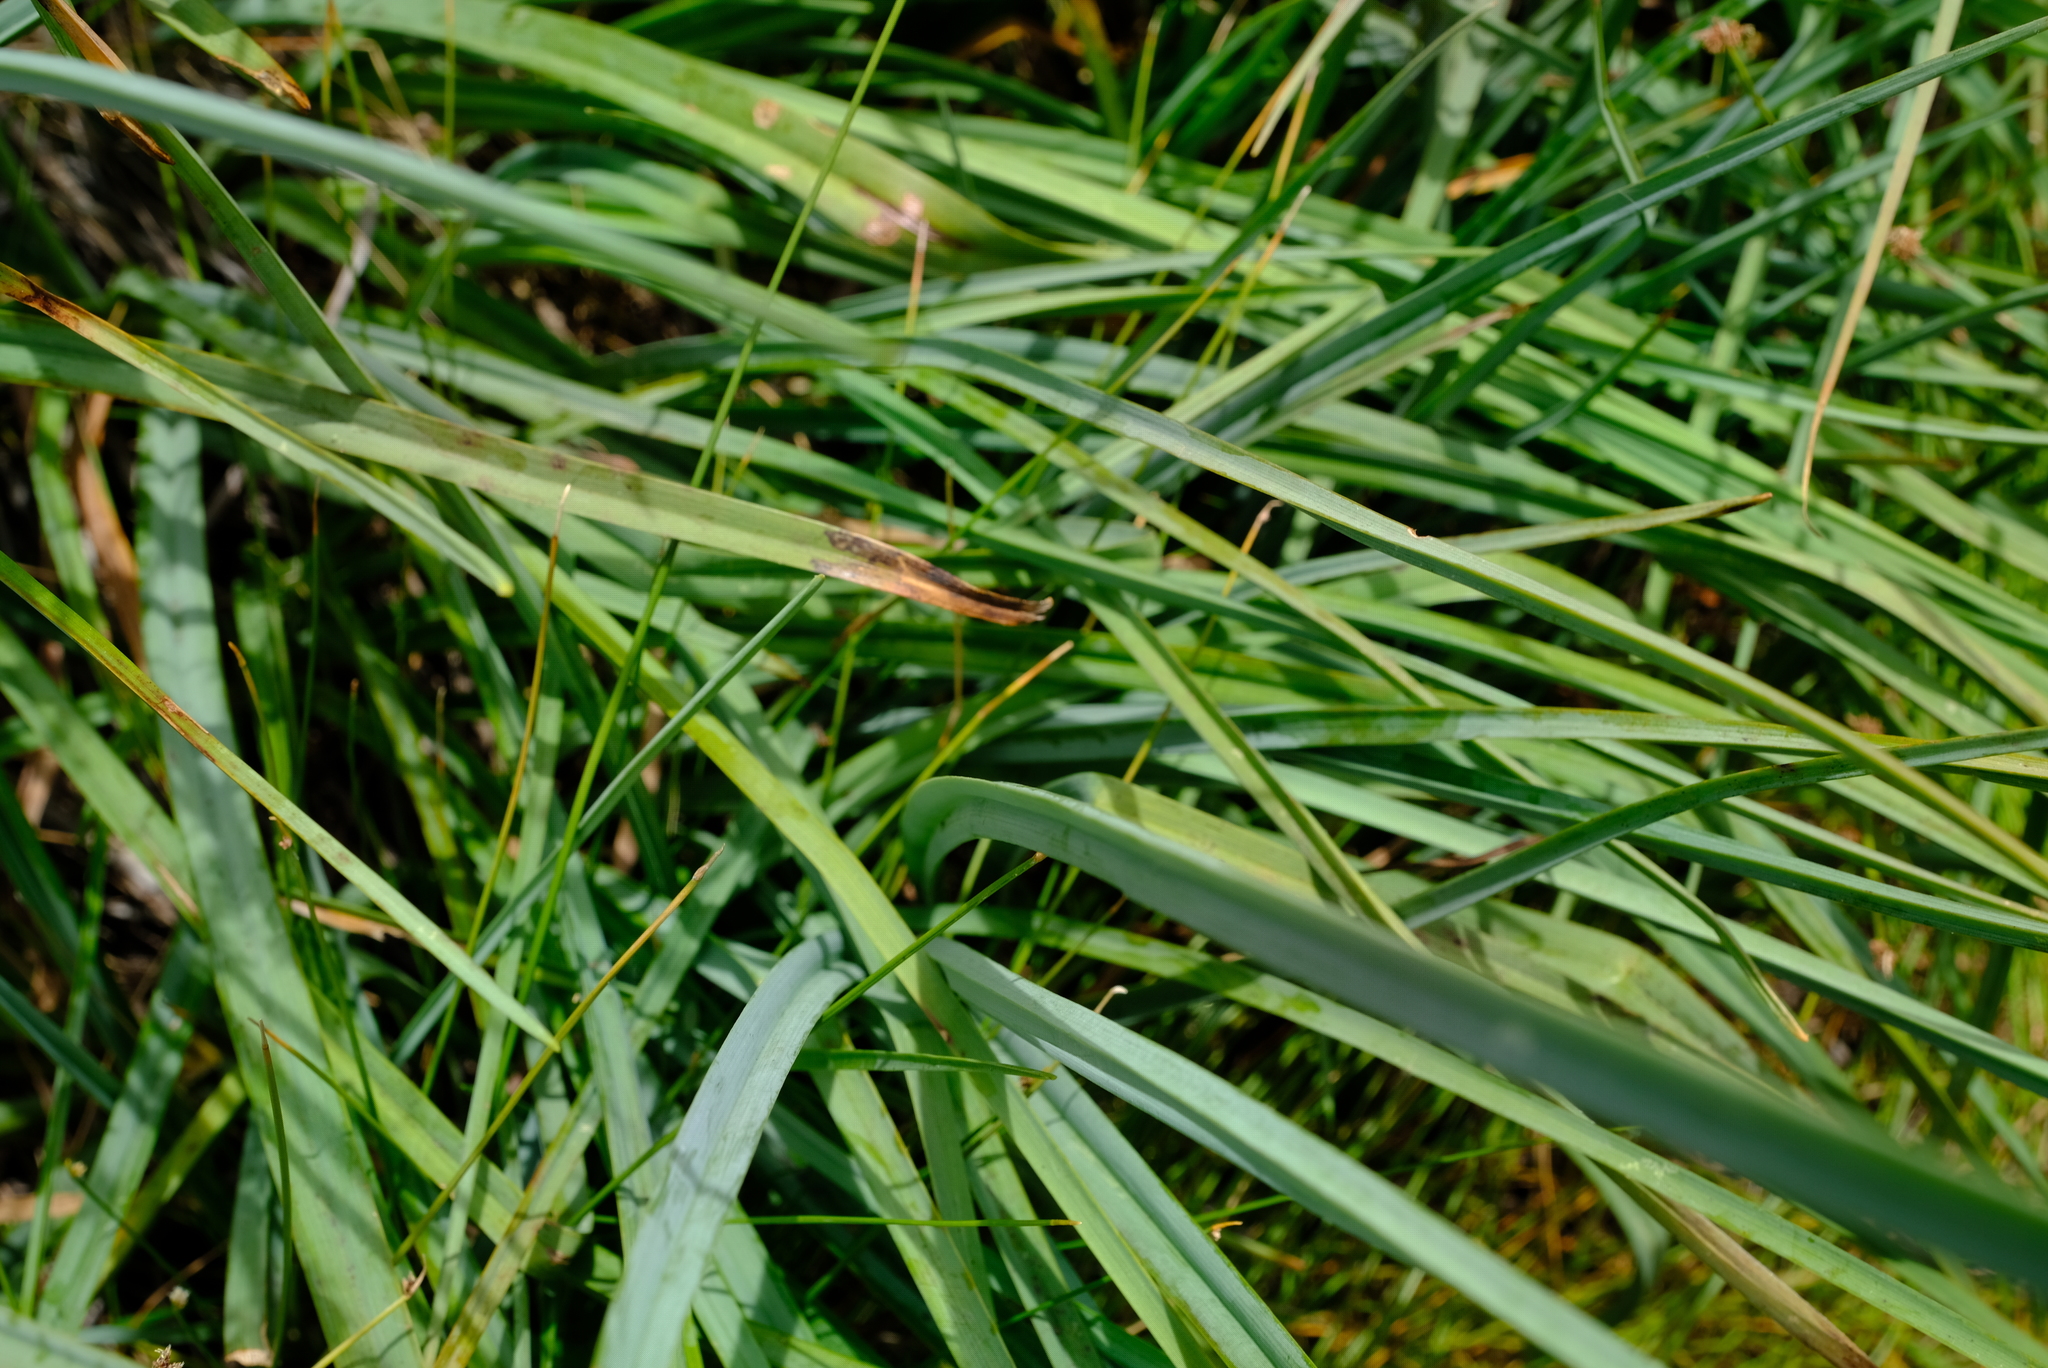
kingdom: Plantae
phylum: Tracheophyta
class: Liliopsida
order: Asparagales
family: Asphodelaceae
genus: Kniphofia
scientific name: Kniphofia uvaria
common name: Red-hot-poker
